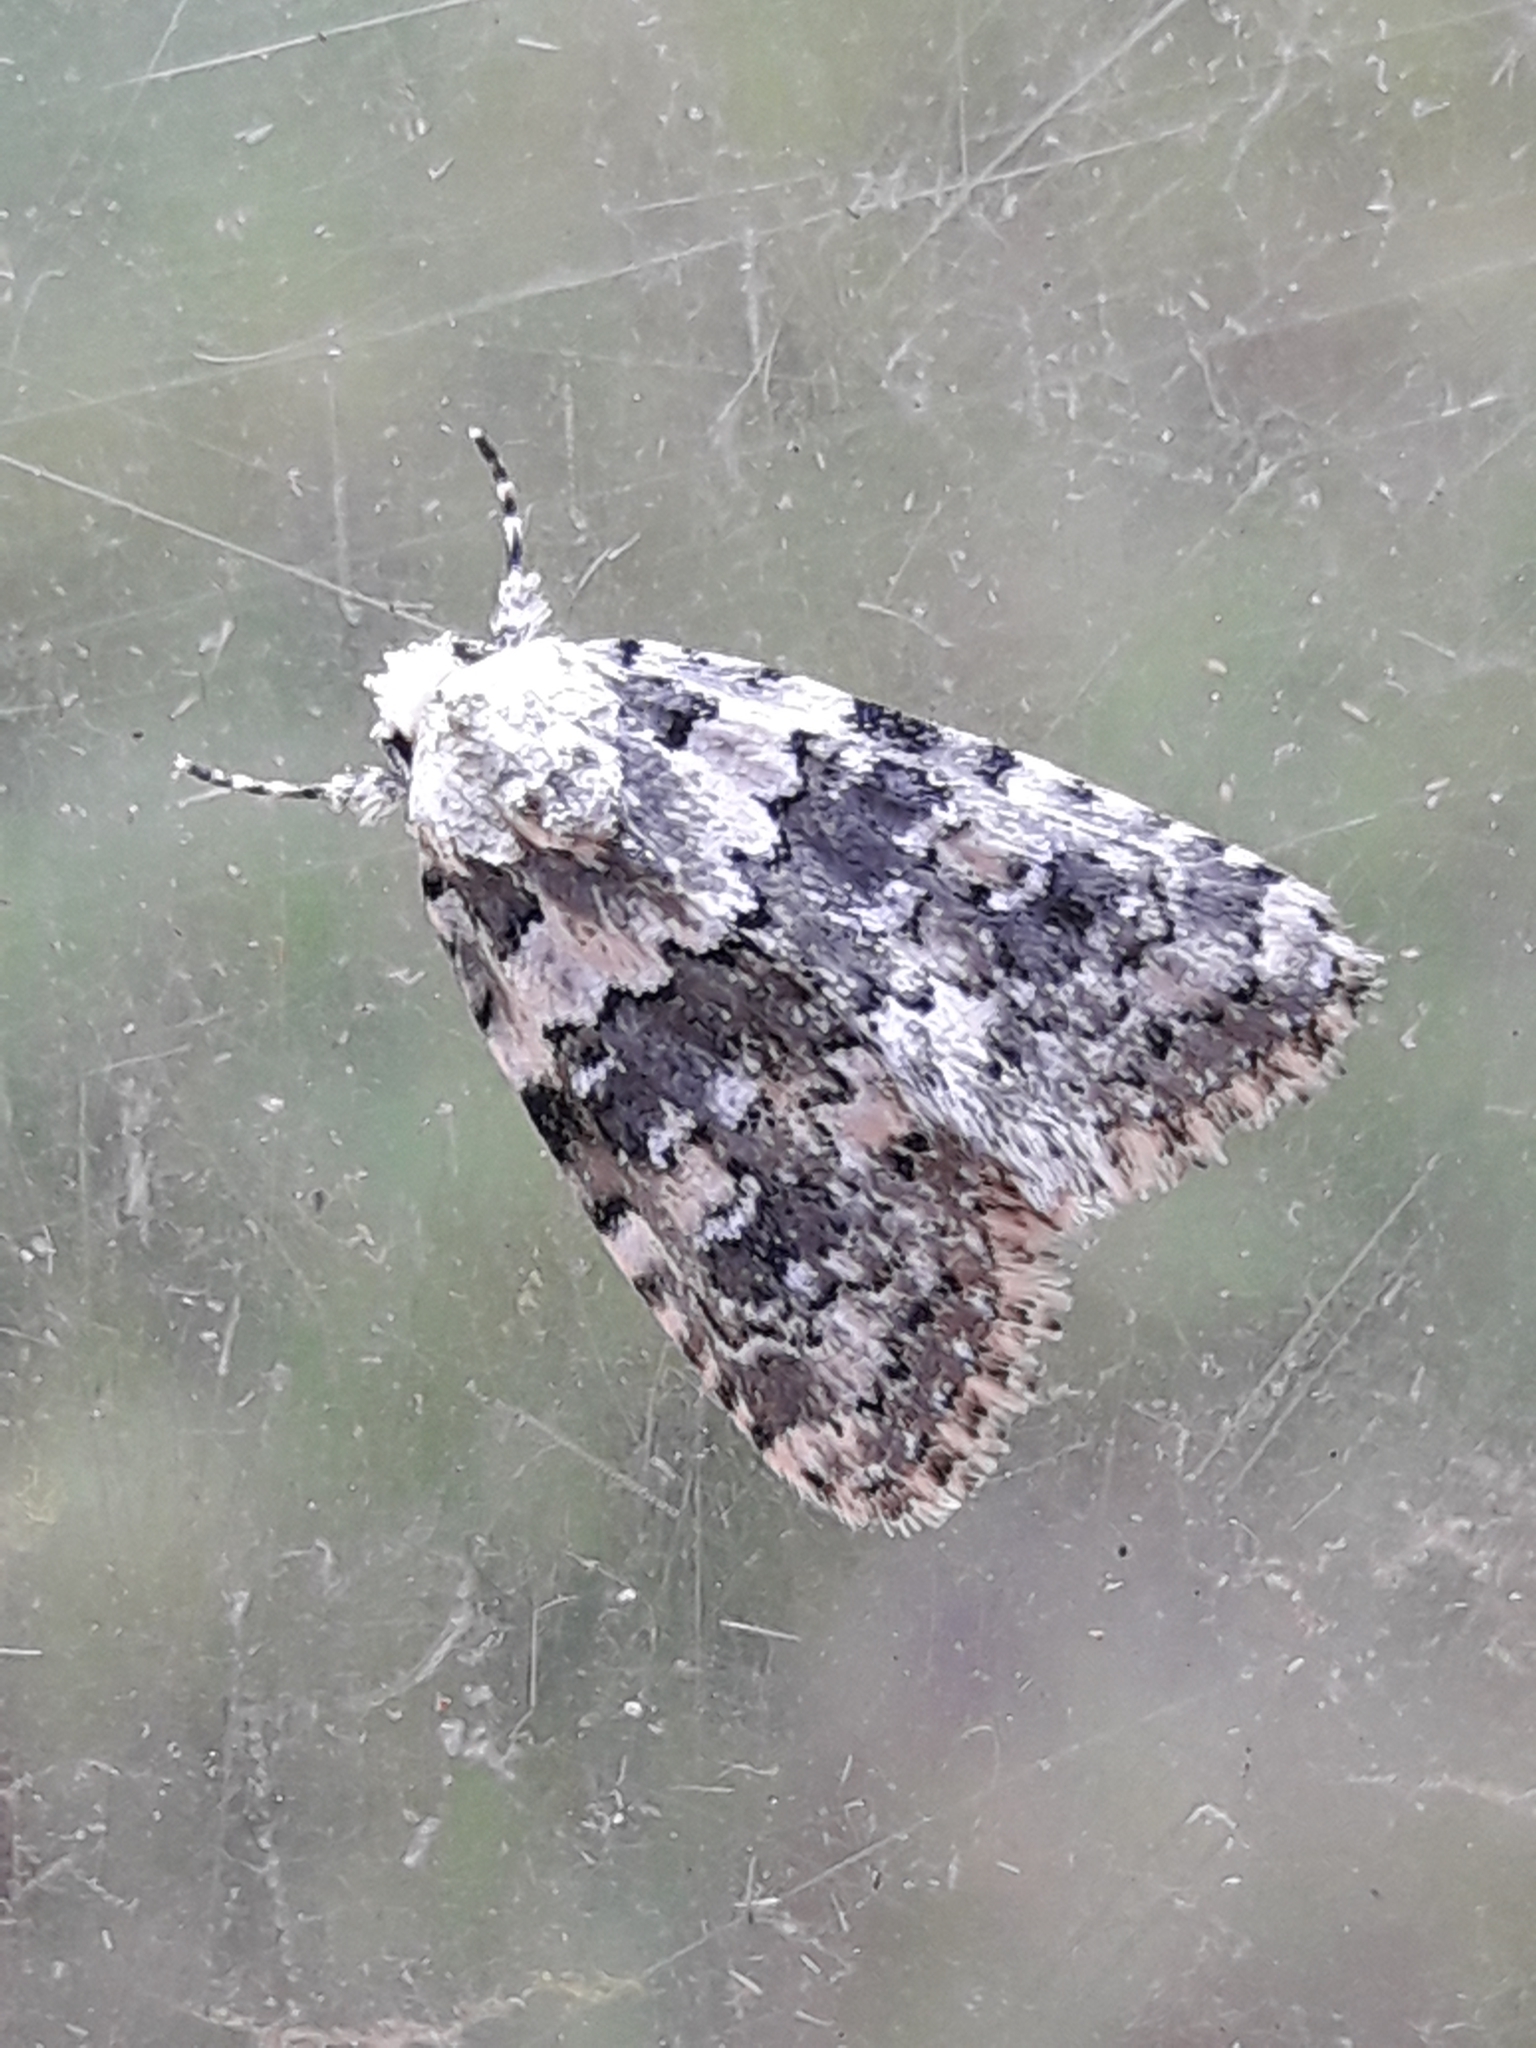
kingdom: Animalia
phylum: Arthropoda
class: Insecta
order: Lepidoptera
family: Noctuidae
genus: Bryophila
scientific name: Bryophila domestica
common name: Marbled beauty
